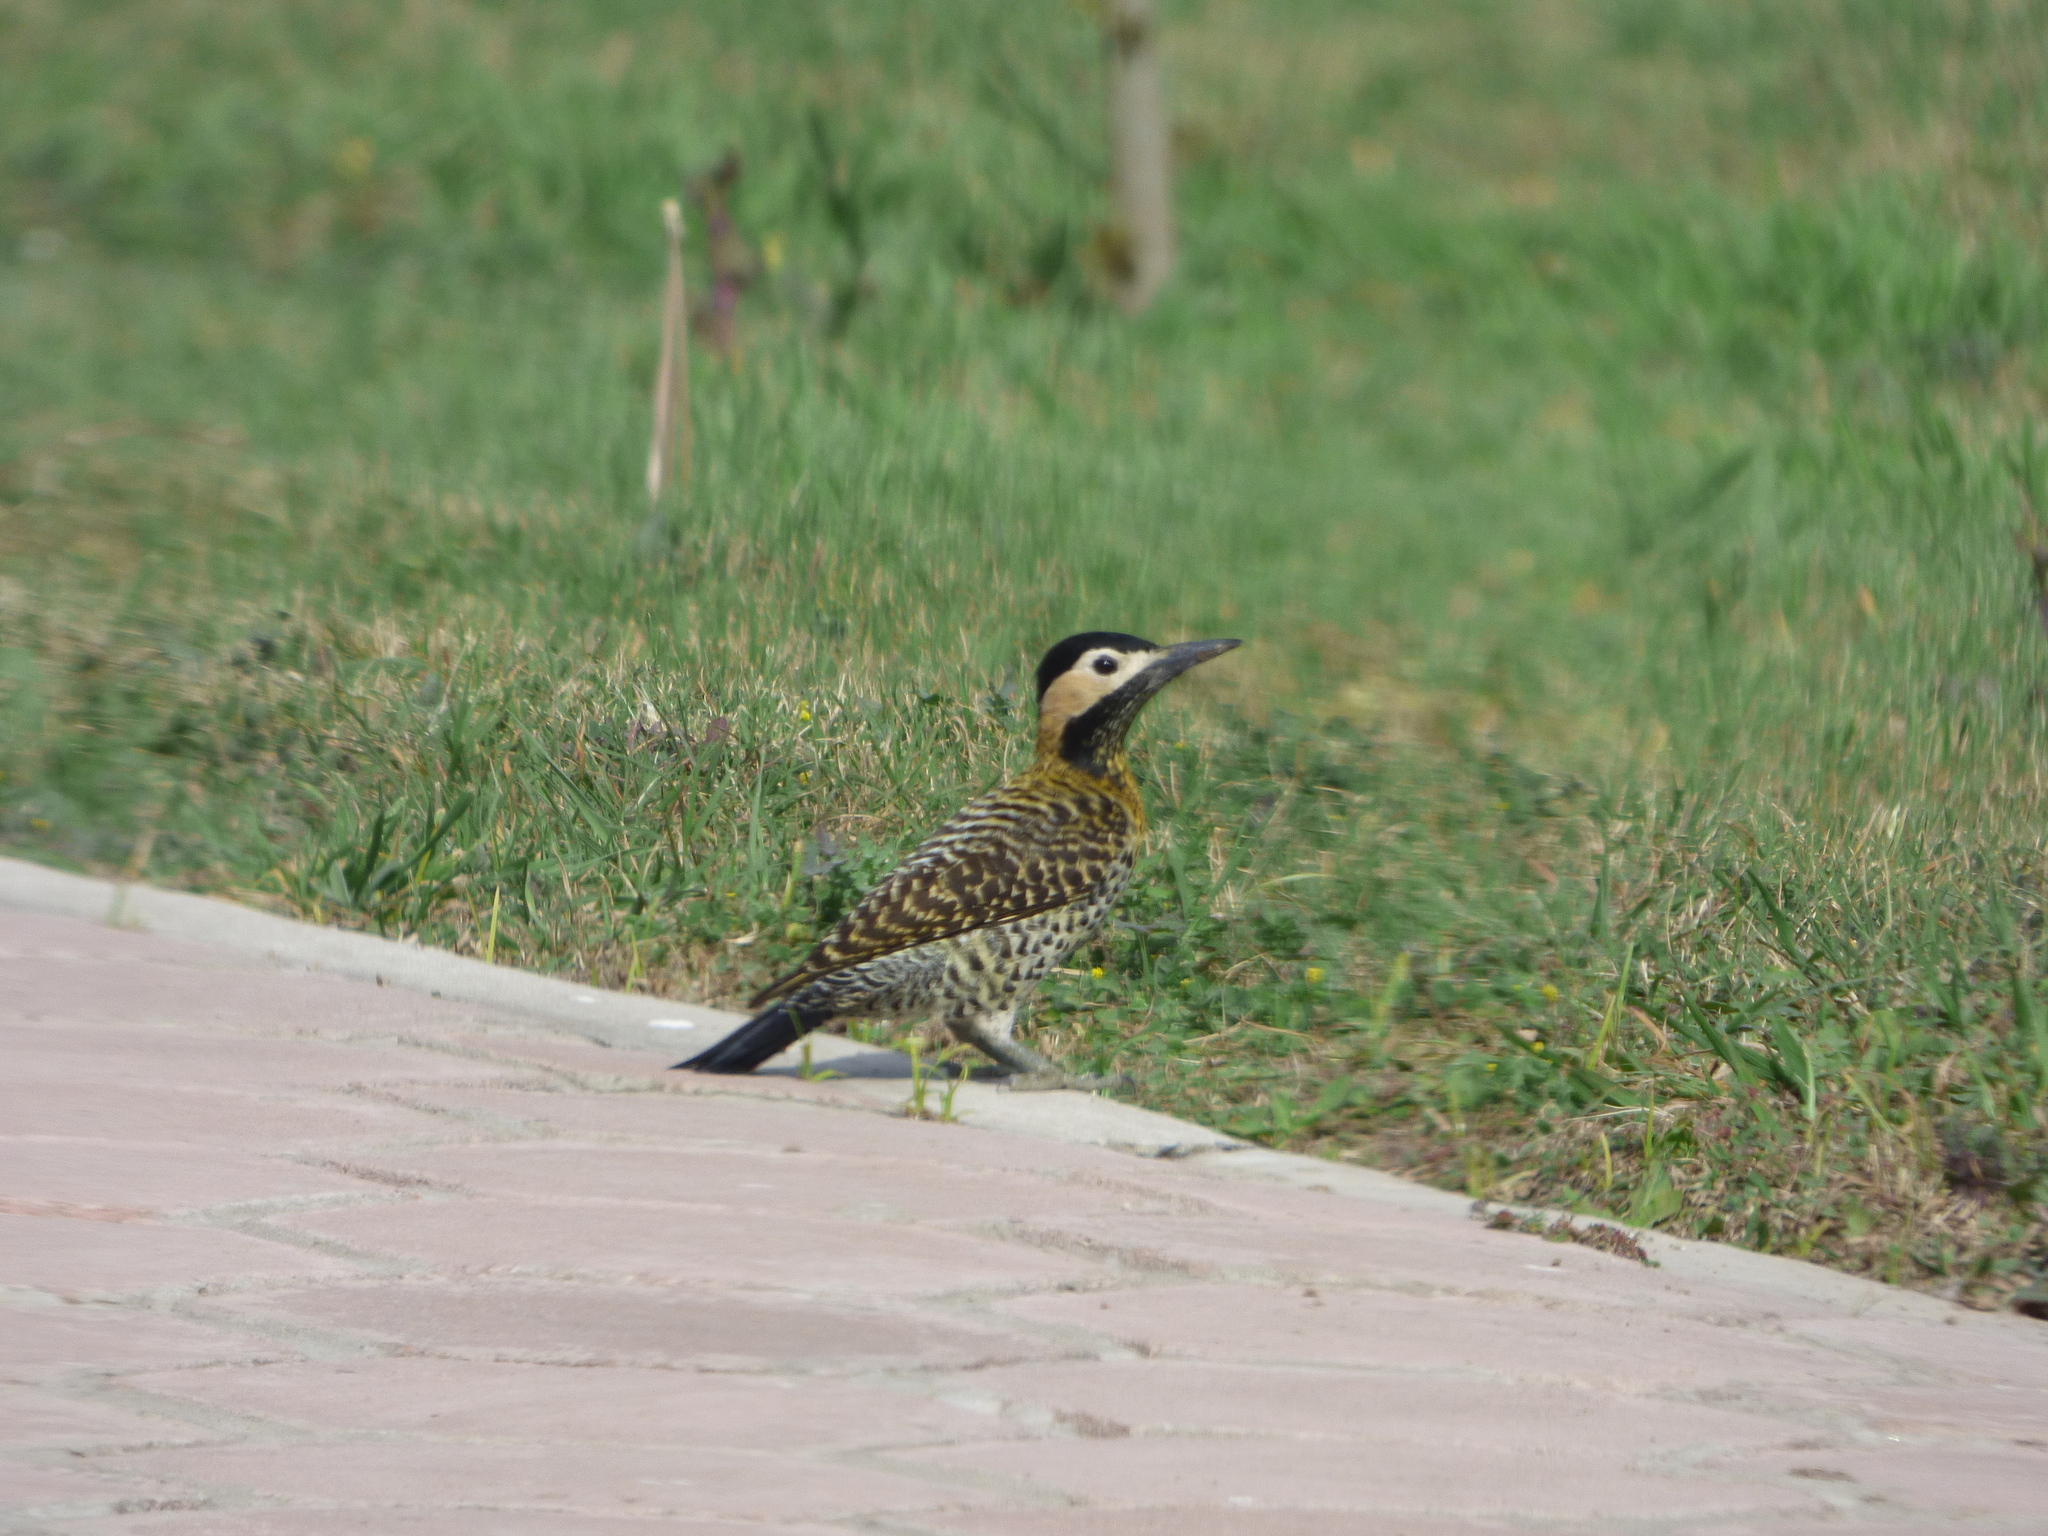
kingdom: Animalia
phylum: Chordata
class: Aves
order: Piciformes
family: Picidae
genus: Colaptes
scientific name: Colaptes melanochloros
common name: Green-barred woodpecker
